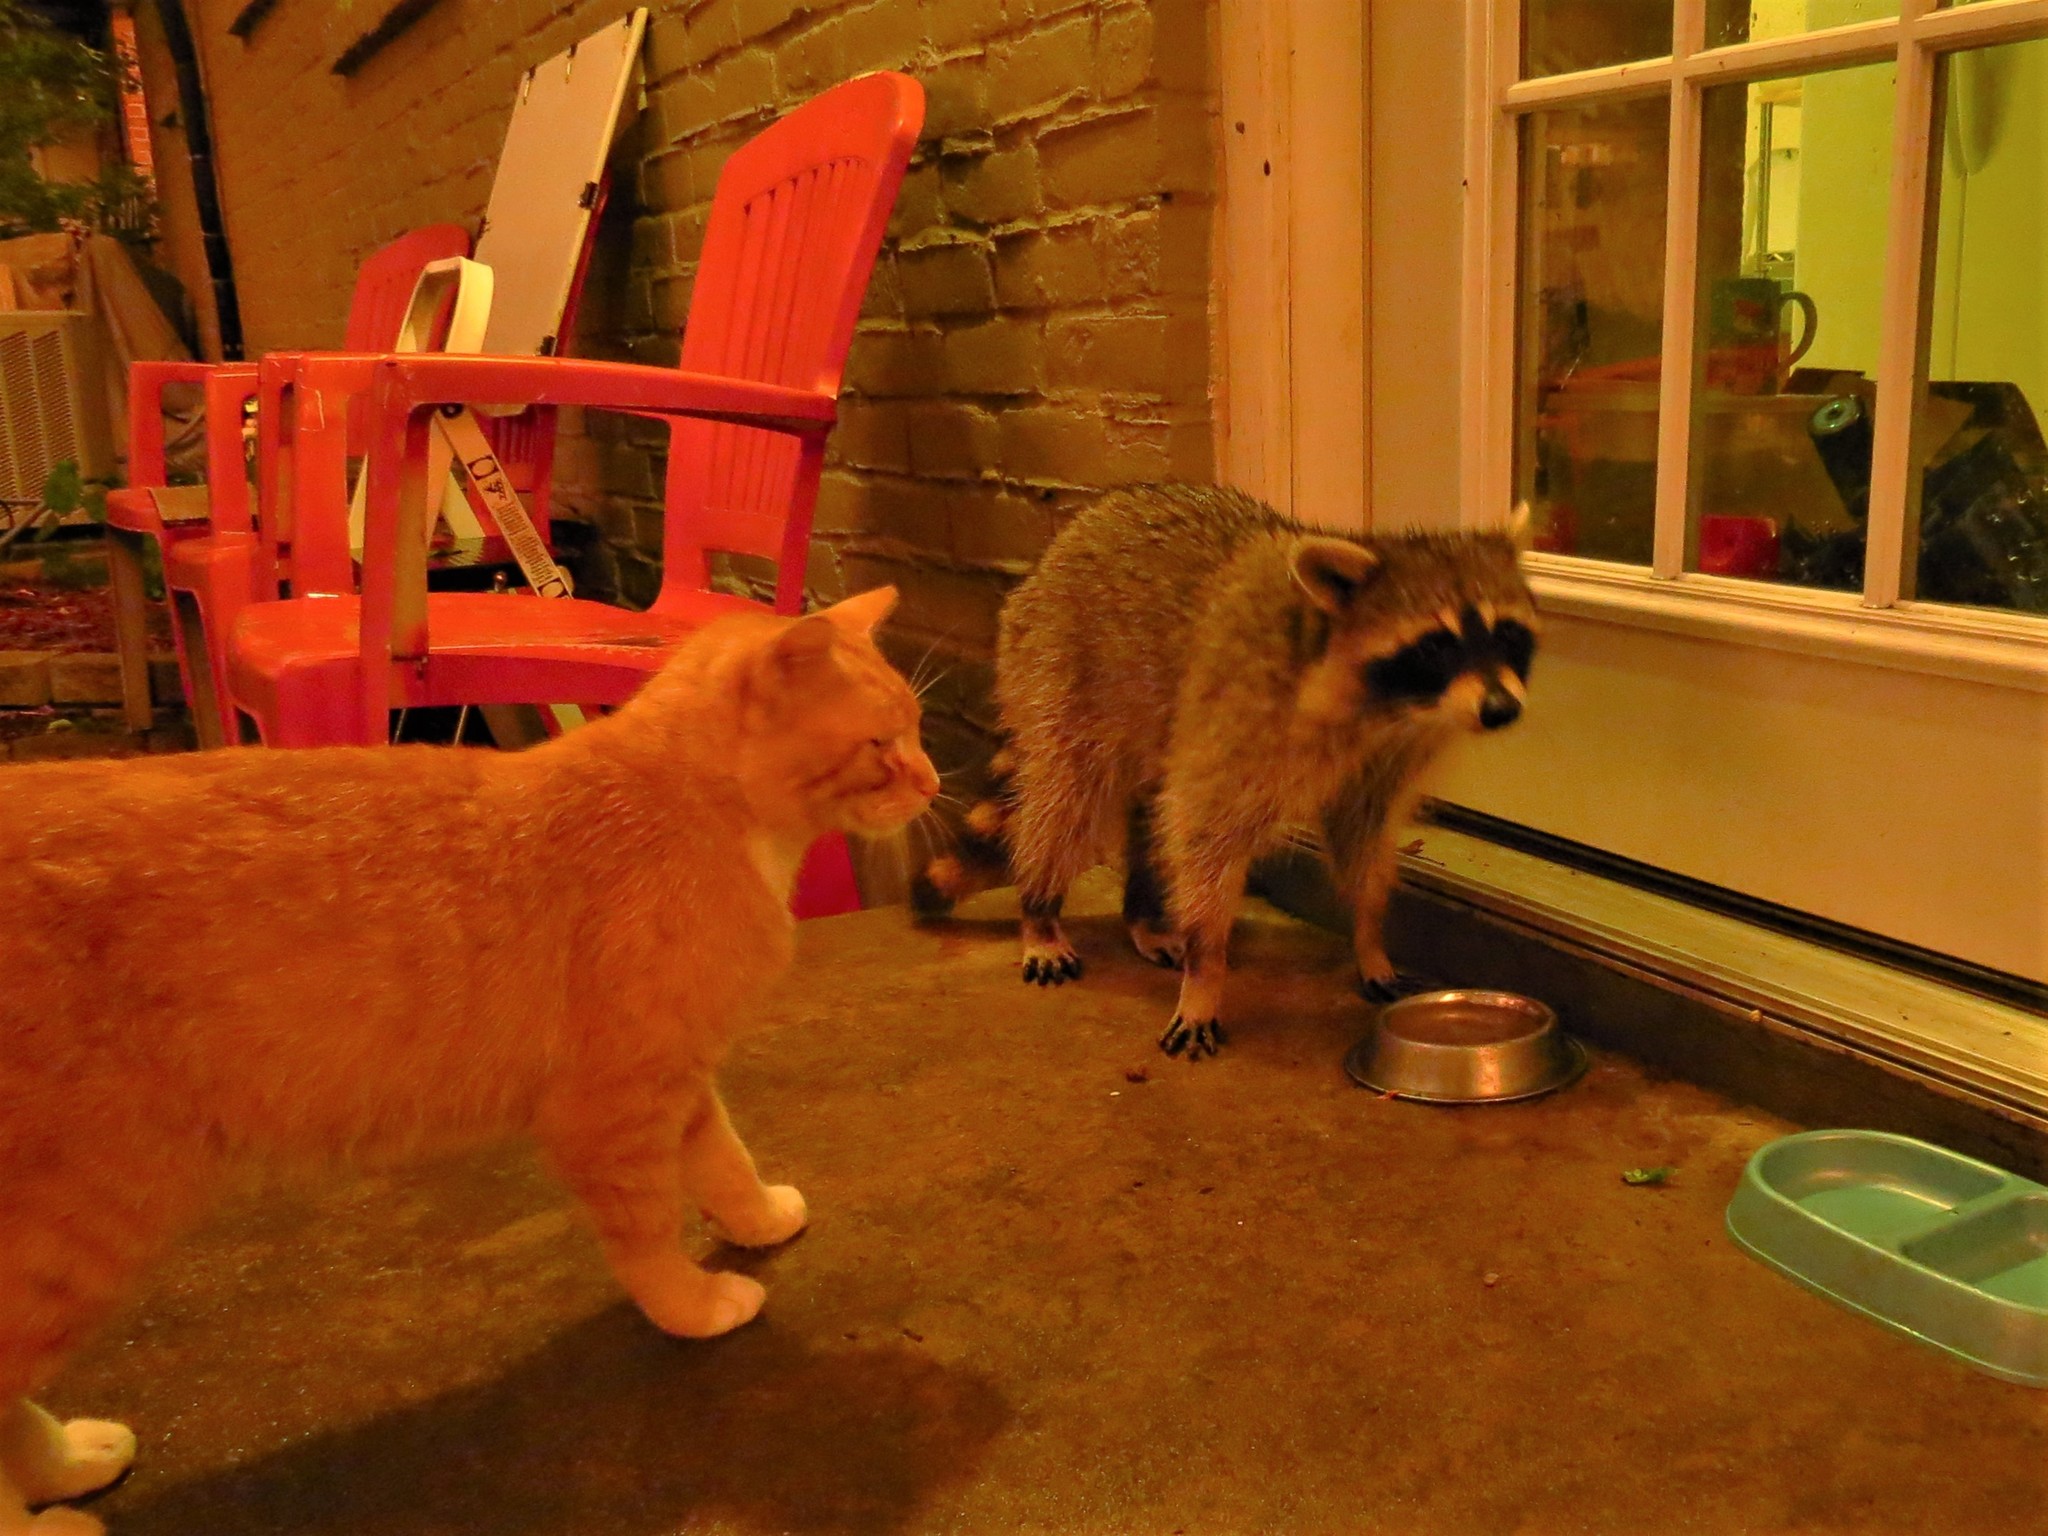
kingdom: Animalia
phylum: Chordata
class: Mammalia
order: Carnivora
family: Procyonidae
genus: Procyon
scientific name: Procyon lotor
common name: Raccoon
